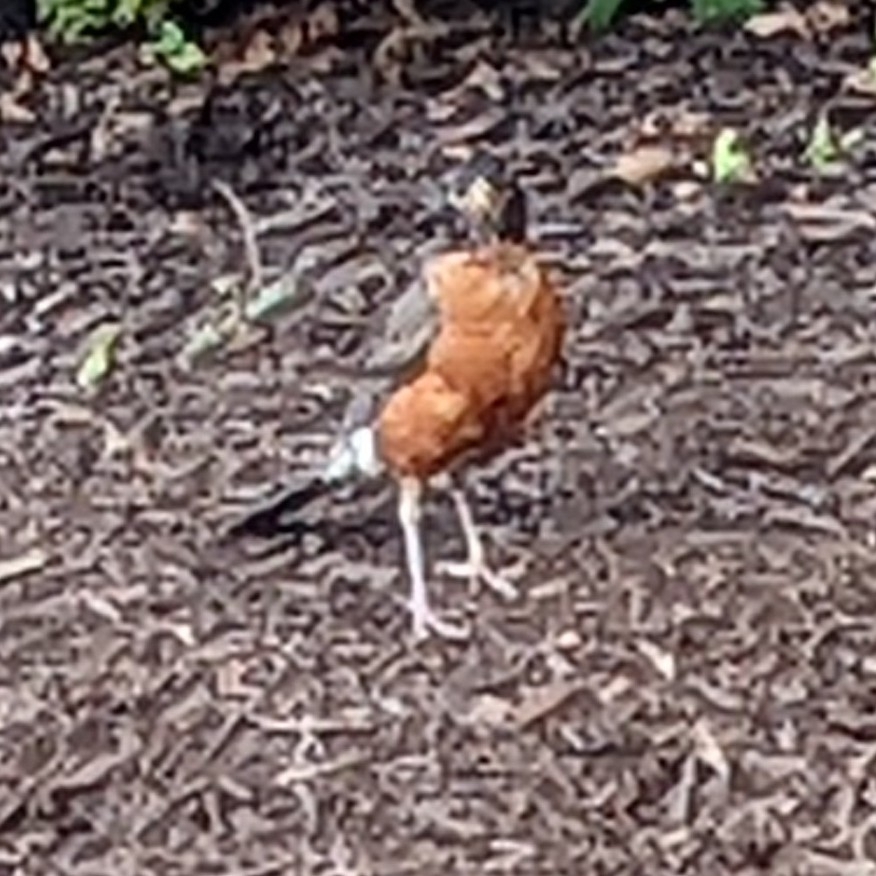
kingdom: Animalia
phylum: Chordata
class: Aves
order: Passeriformes
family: Turdidae
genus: Turdus
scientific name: Turdus migratorius
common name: American robin
